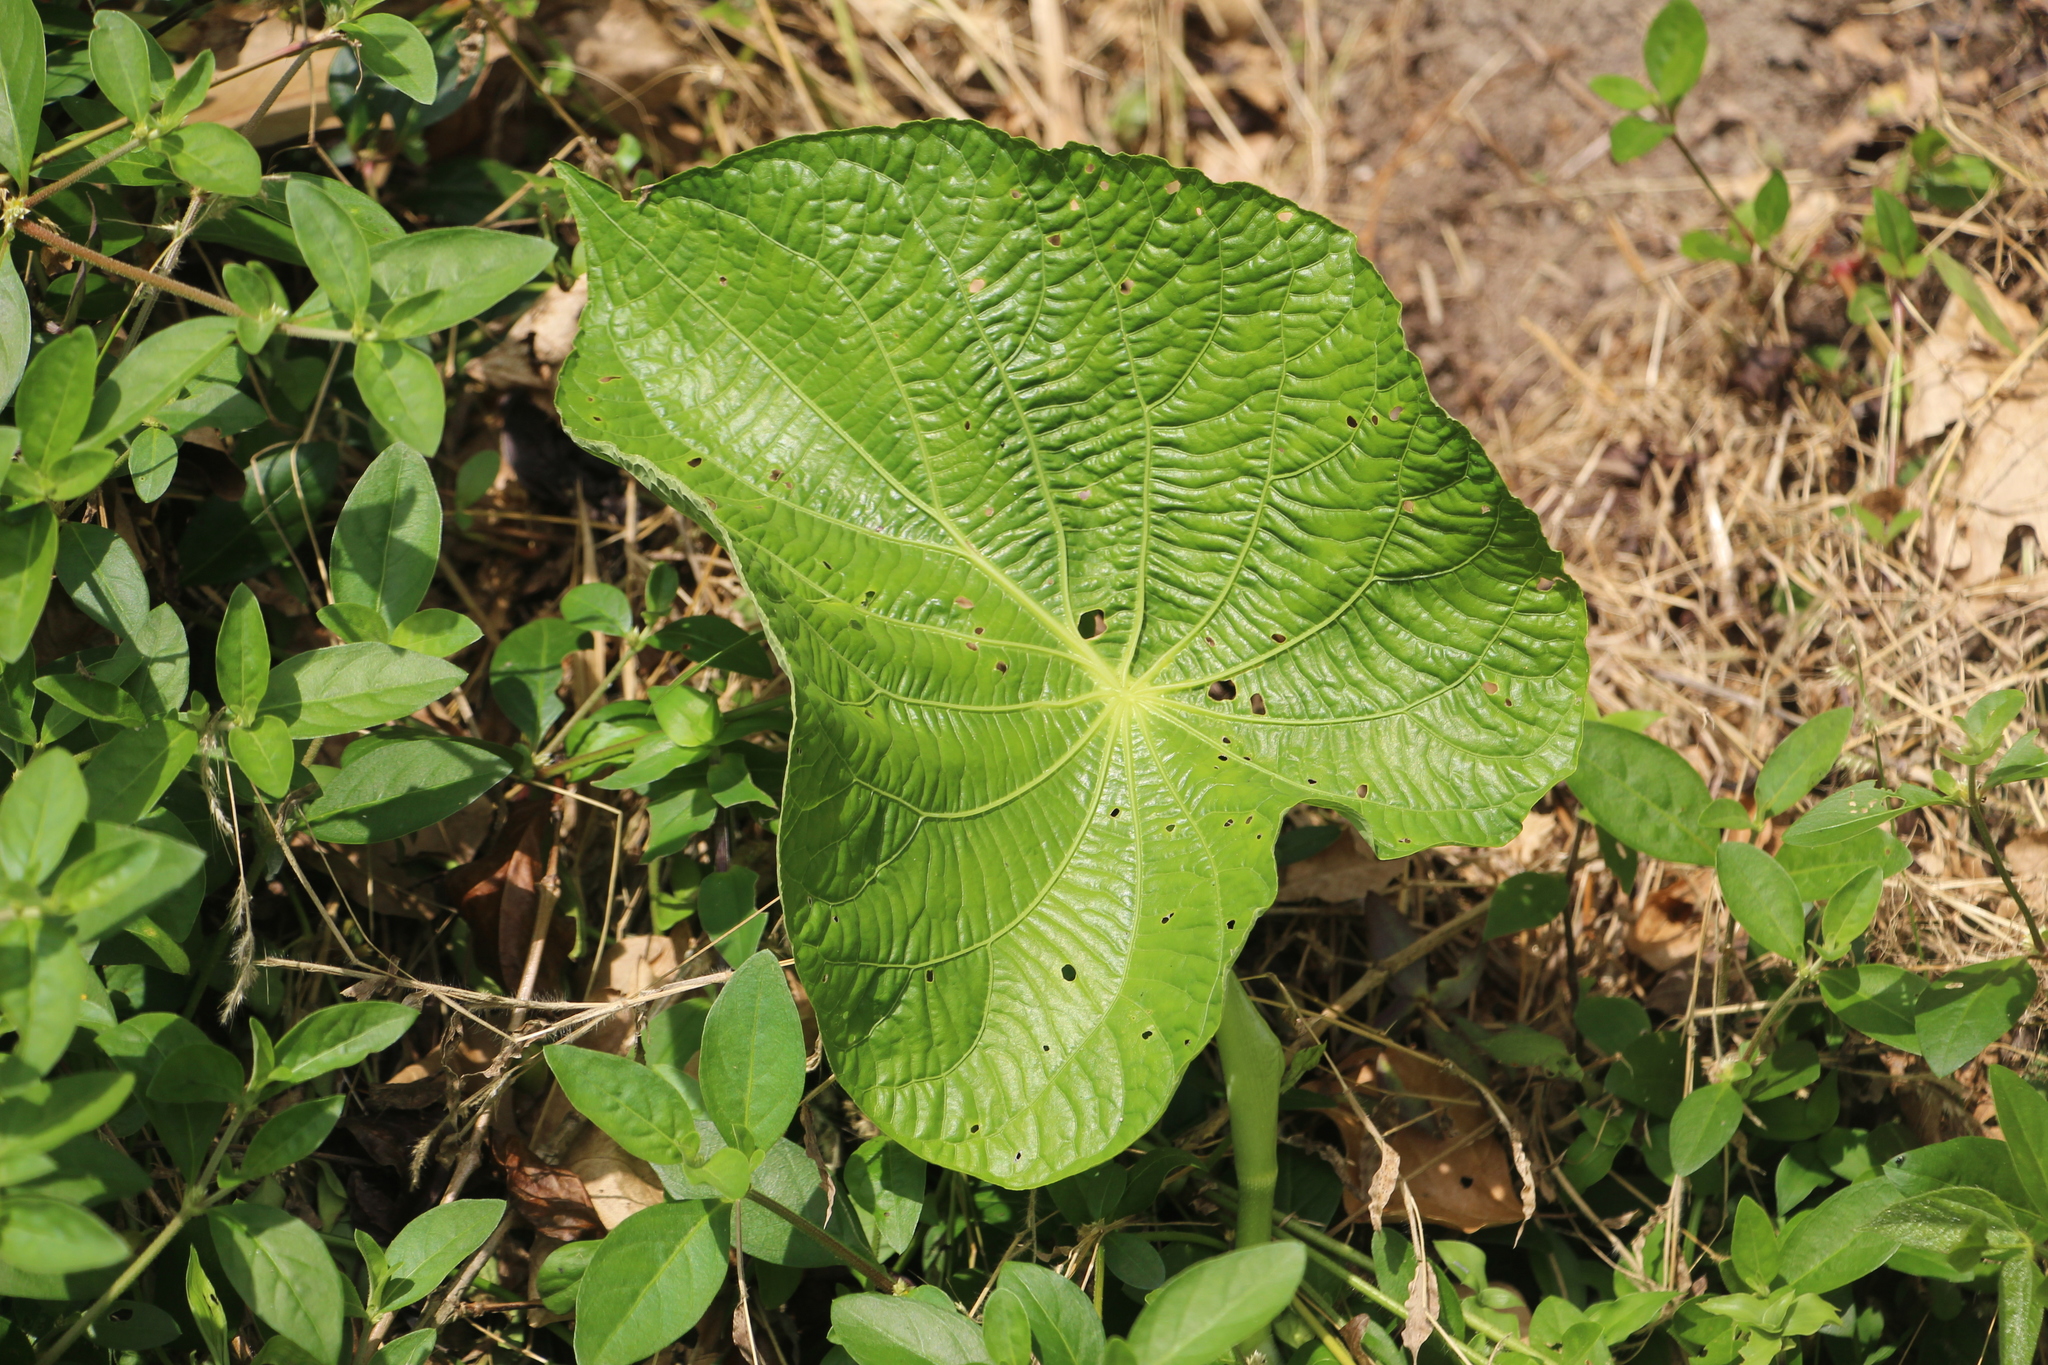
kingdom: Plantae
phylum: Tracheophyta
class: Magnoliopsida
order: Piperales
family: Piperaceae
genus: Piper
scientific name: Piper peltatum
